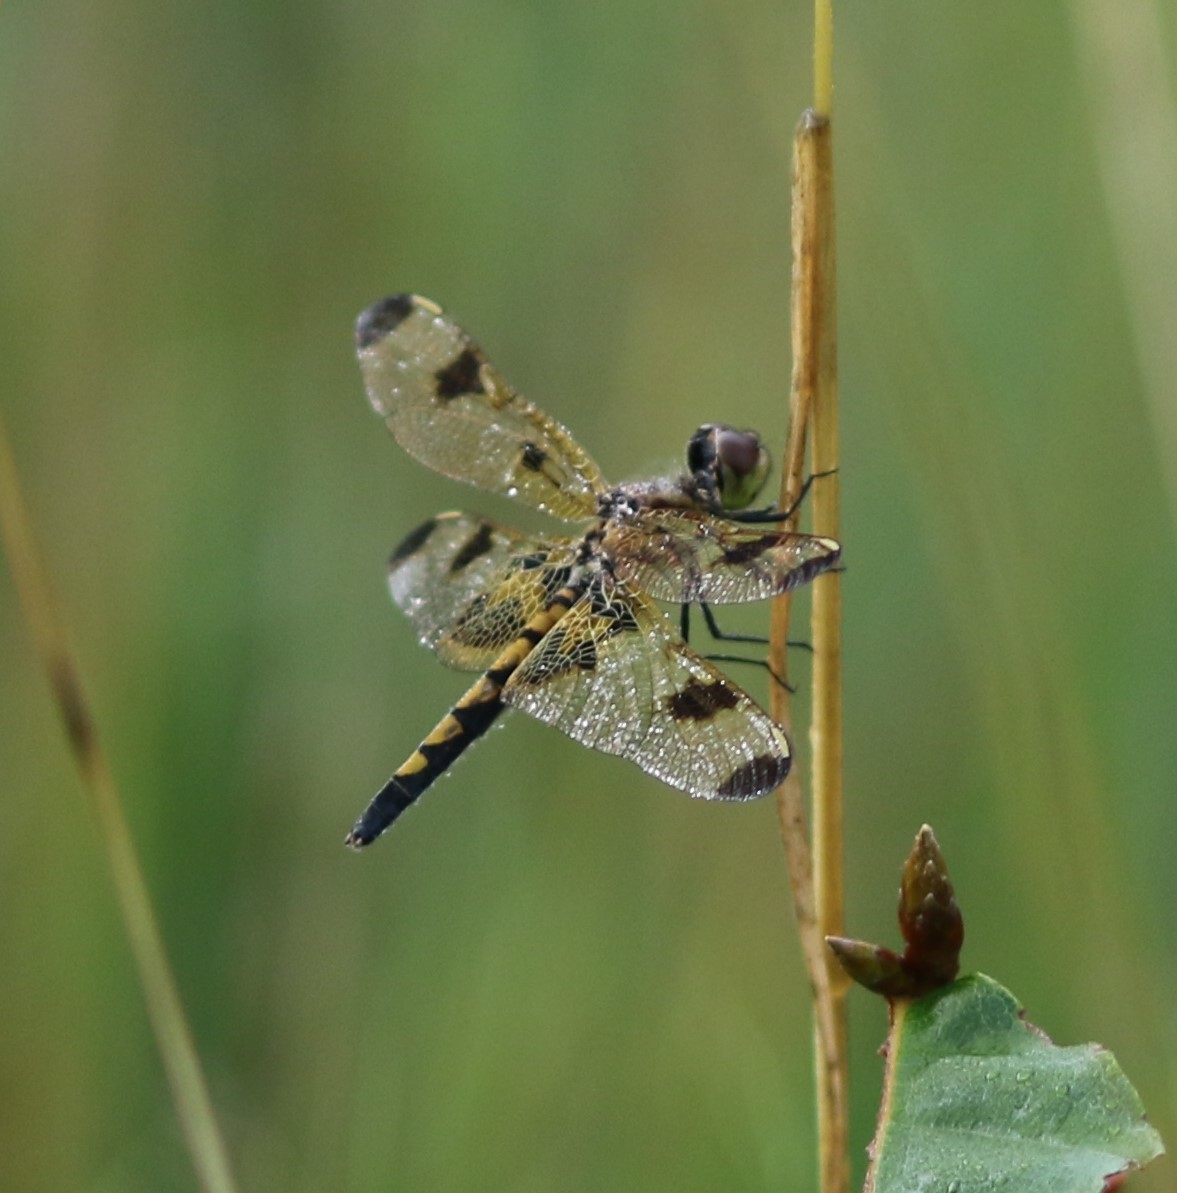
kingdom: Animalia
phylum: Arthropoda
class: Insecta
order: Odonata
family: Libellulidae
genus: Celithemis
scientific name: Celithemis elisa
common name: Calico pennant
